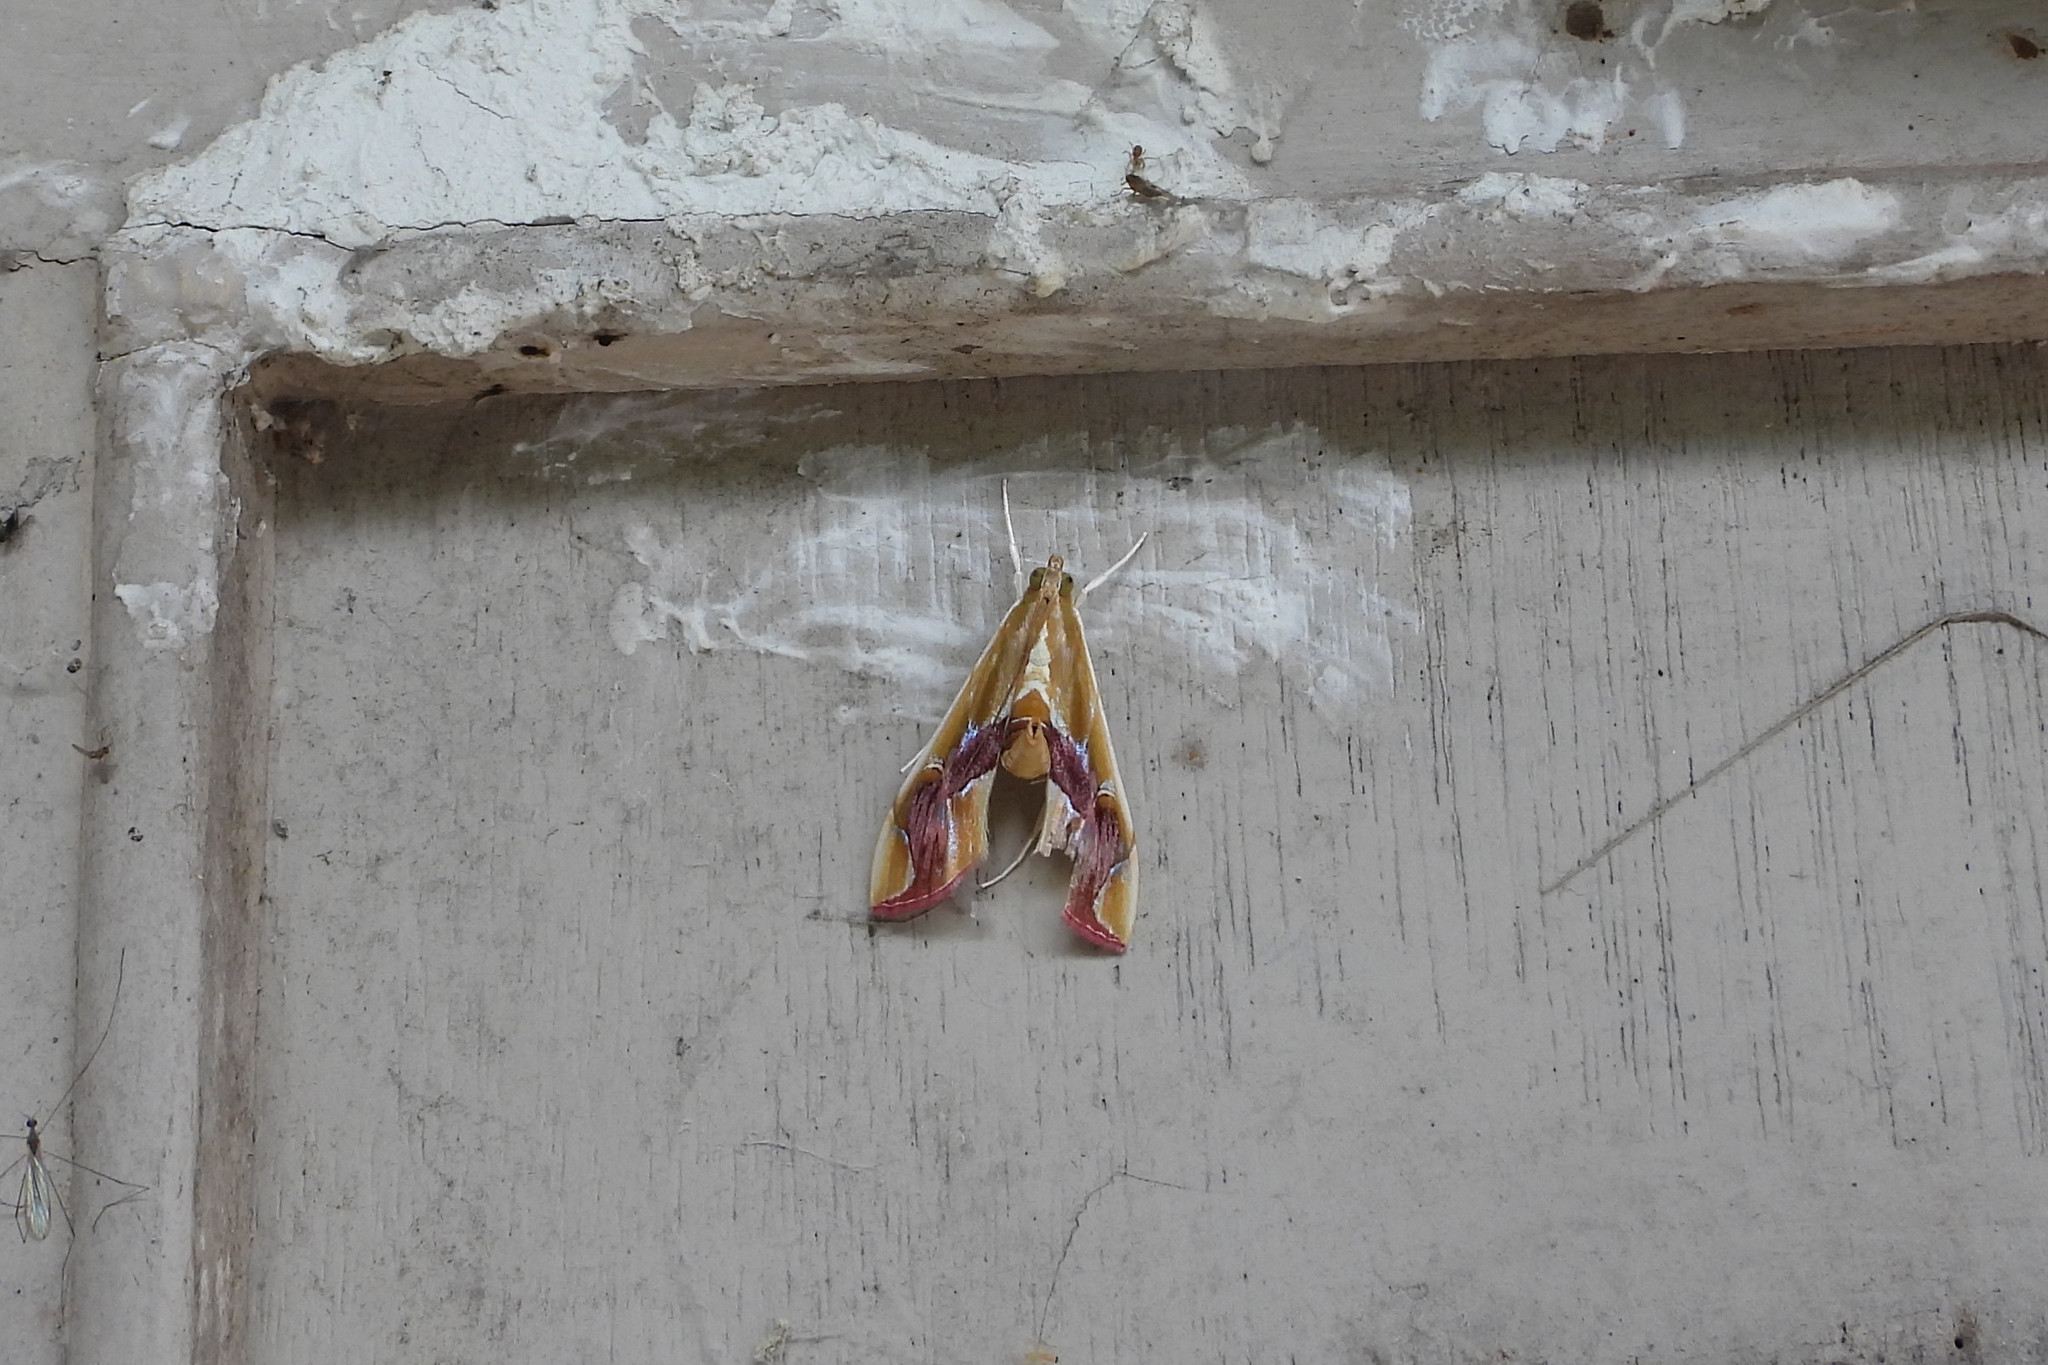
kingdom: Animalia
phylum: Arthropoda
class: Insecta
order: Lepidoptera
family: Crambidae
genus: Agathodes
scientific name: Agathodes ostentalis
